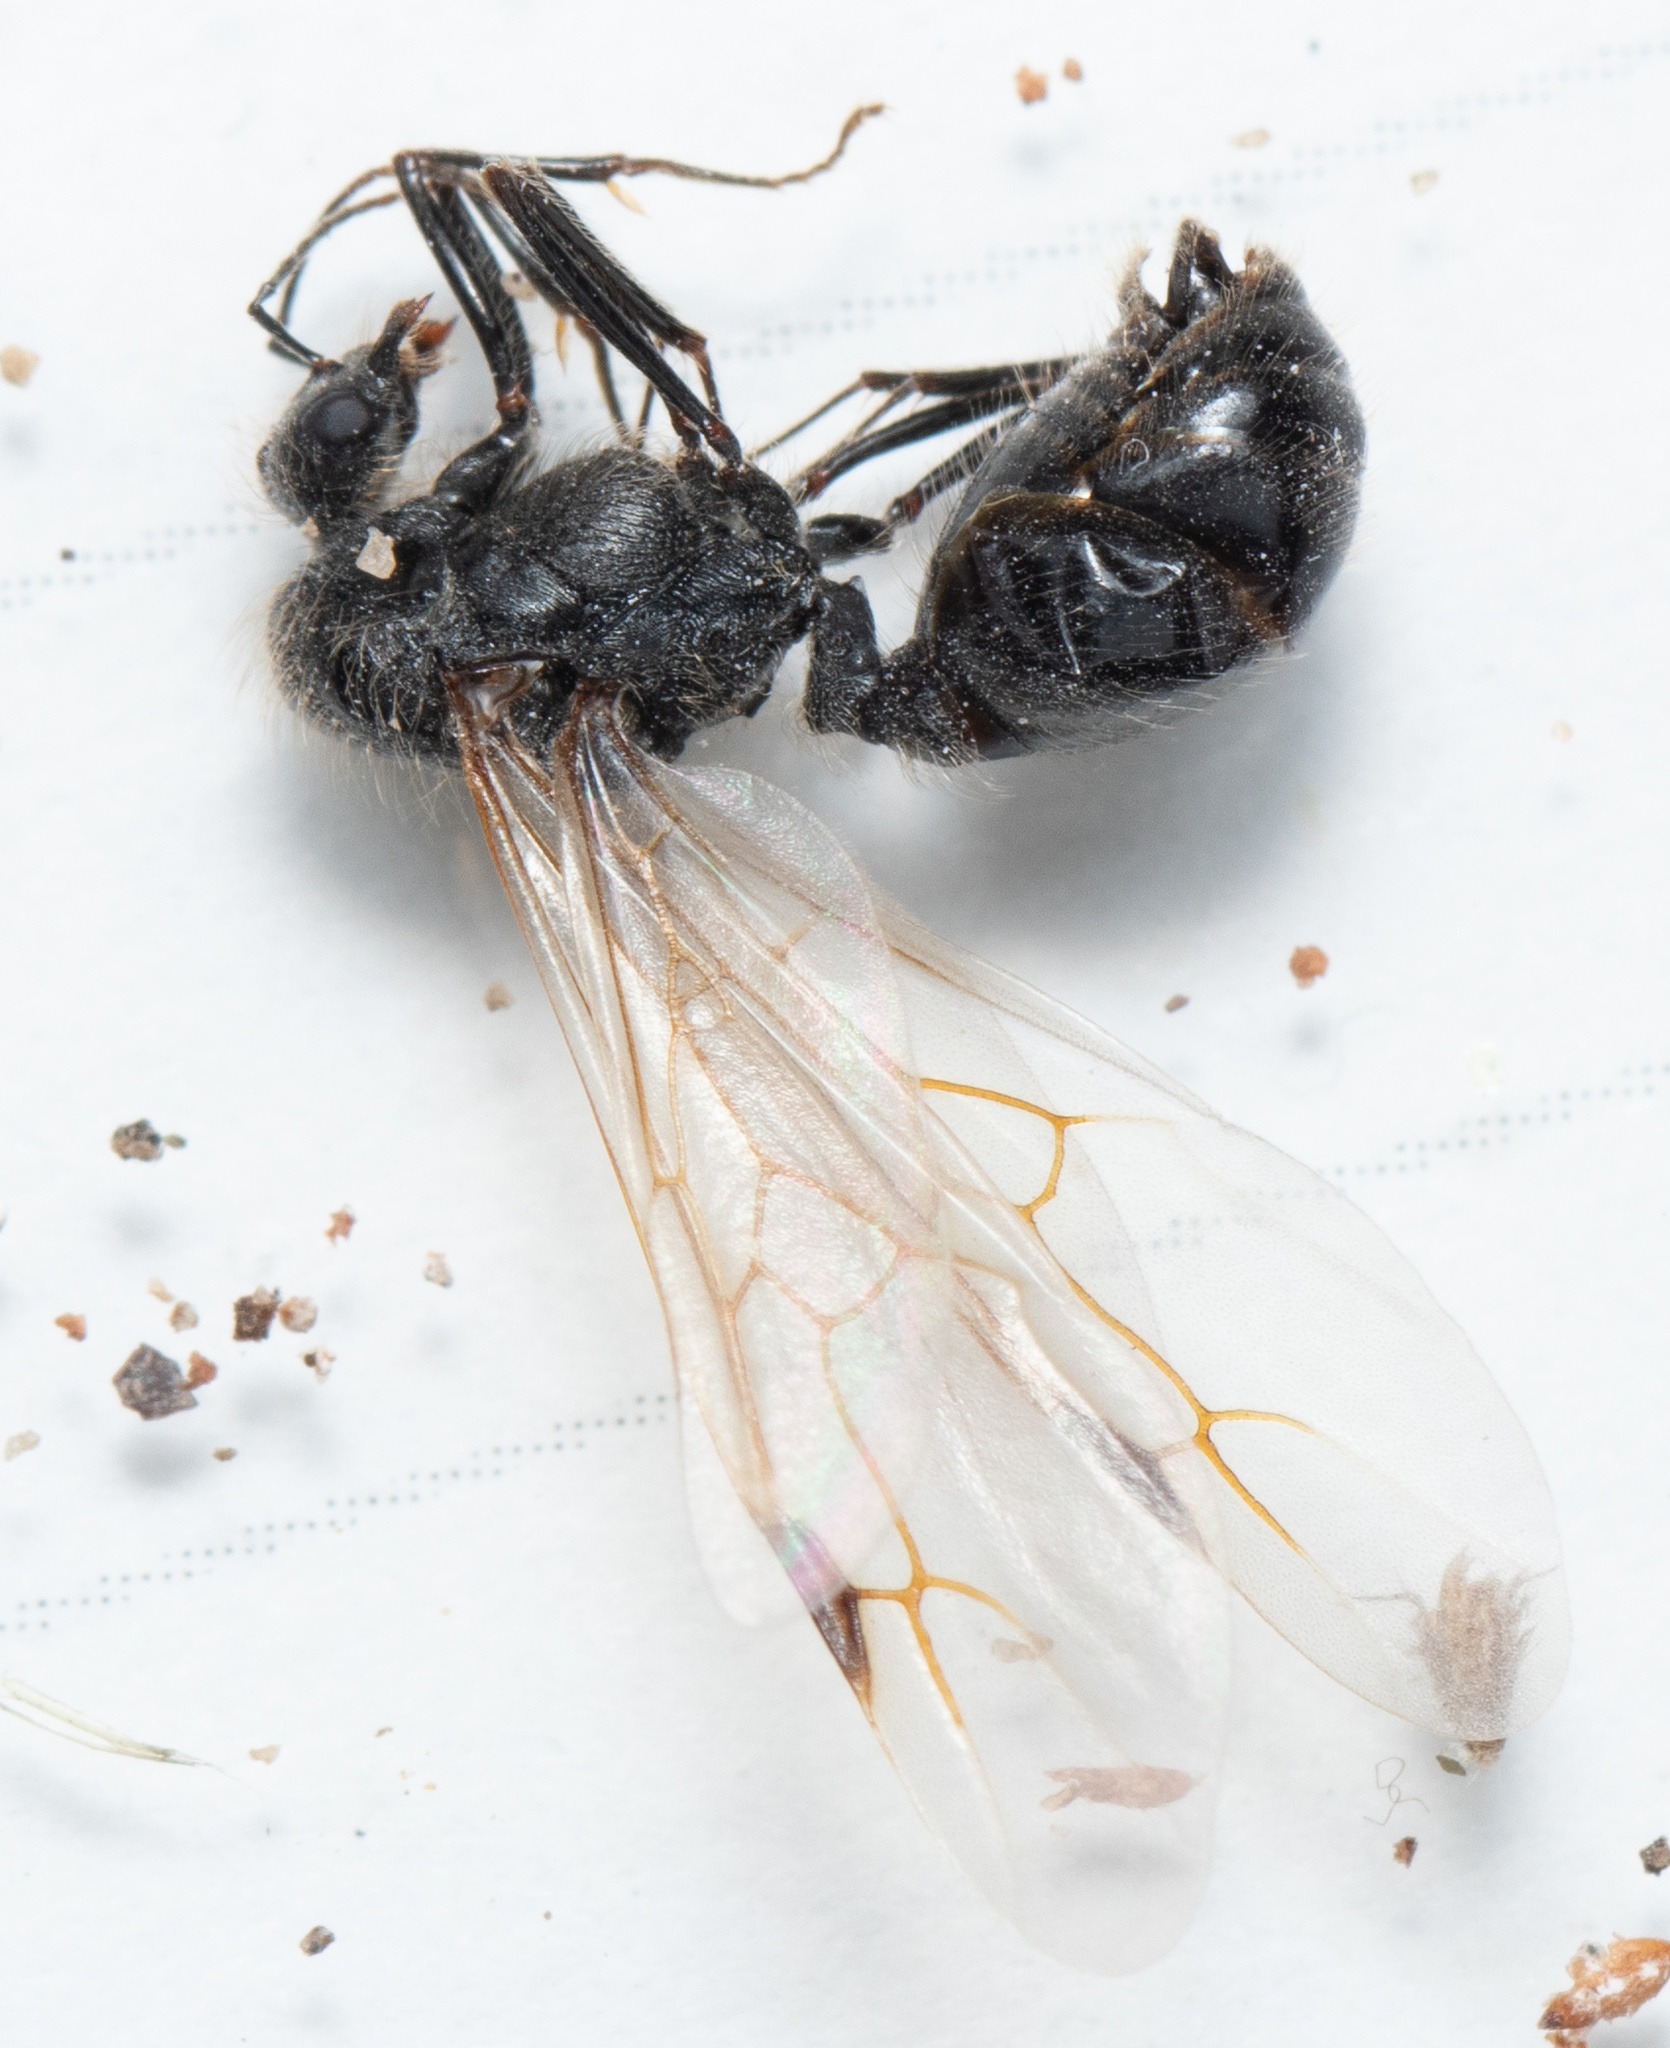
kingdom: Animalia
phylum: Arthropoda
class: Insecta
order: Hymenoptera
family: Formicidae
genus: Messor
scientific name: Messor pergandei
